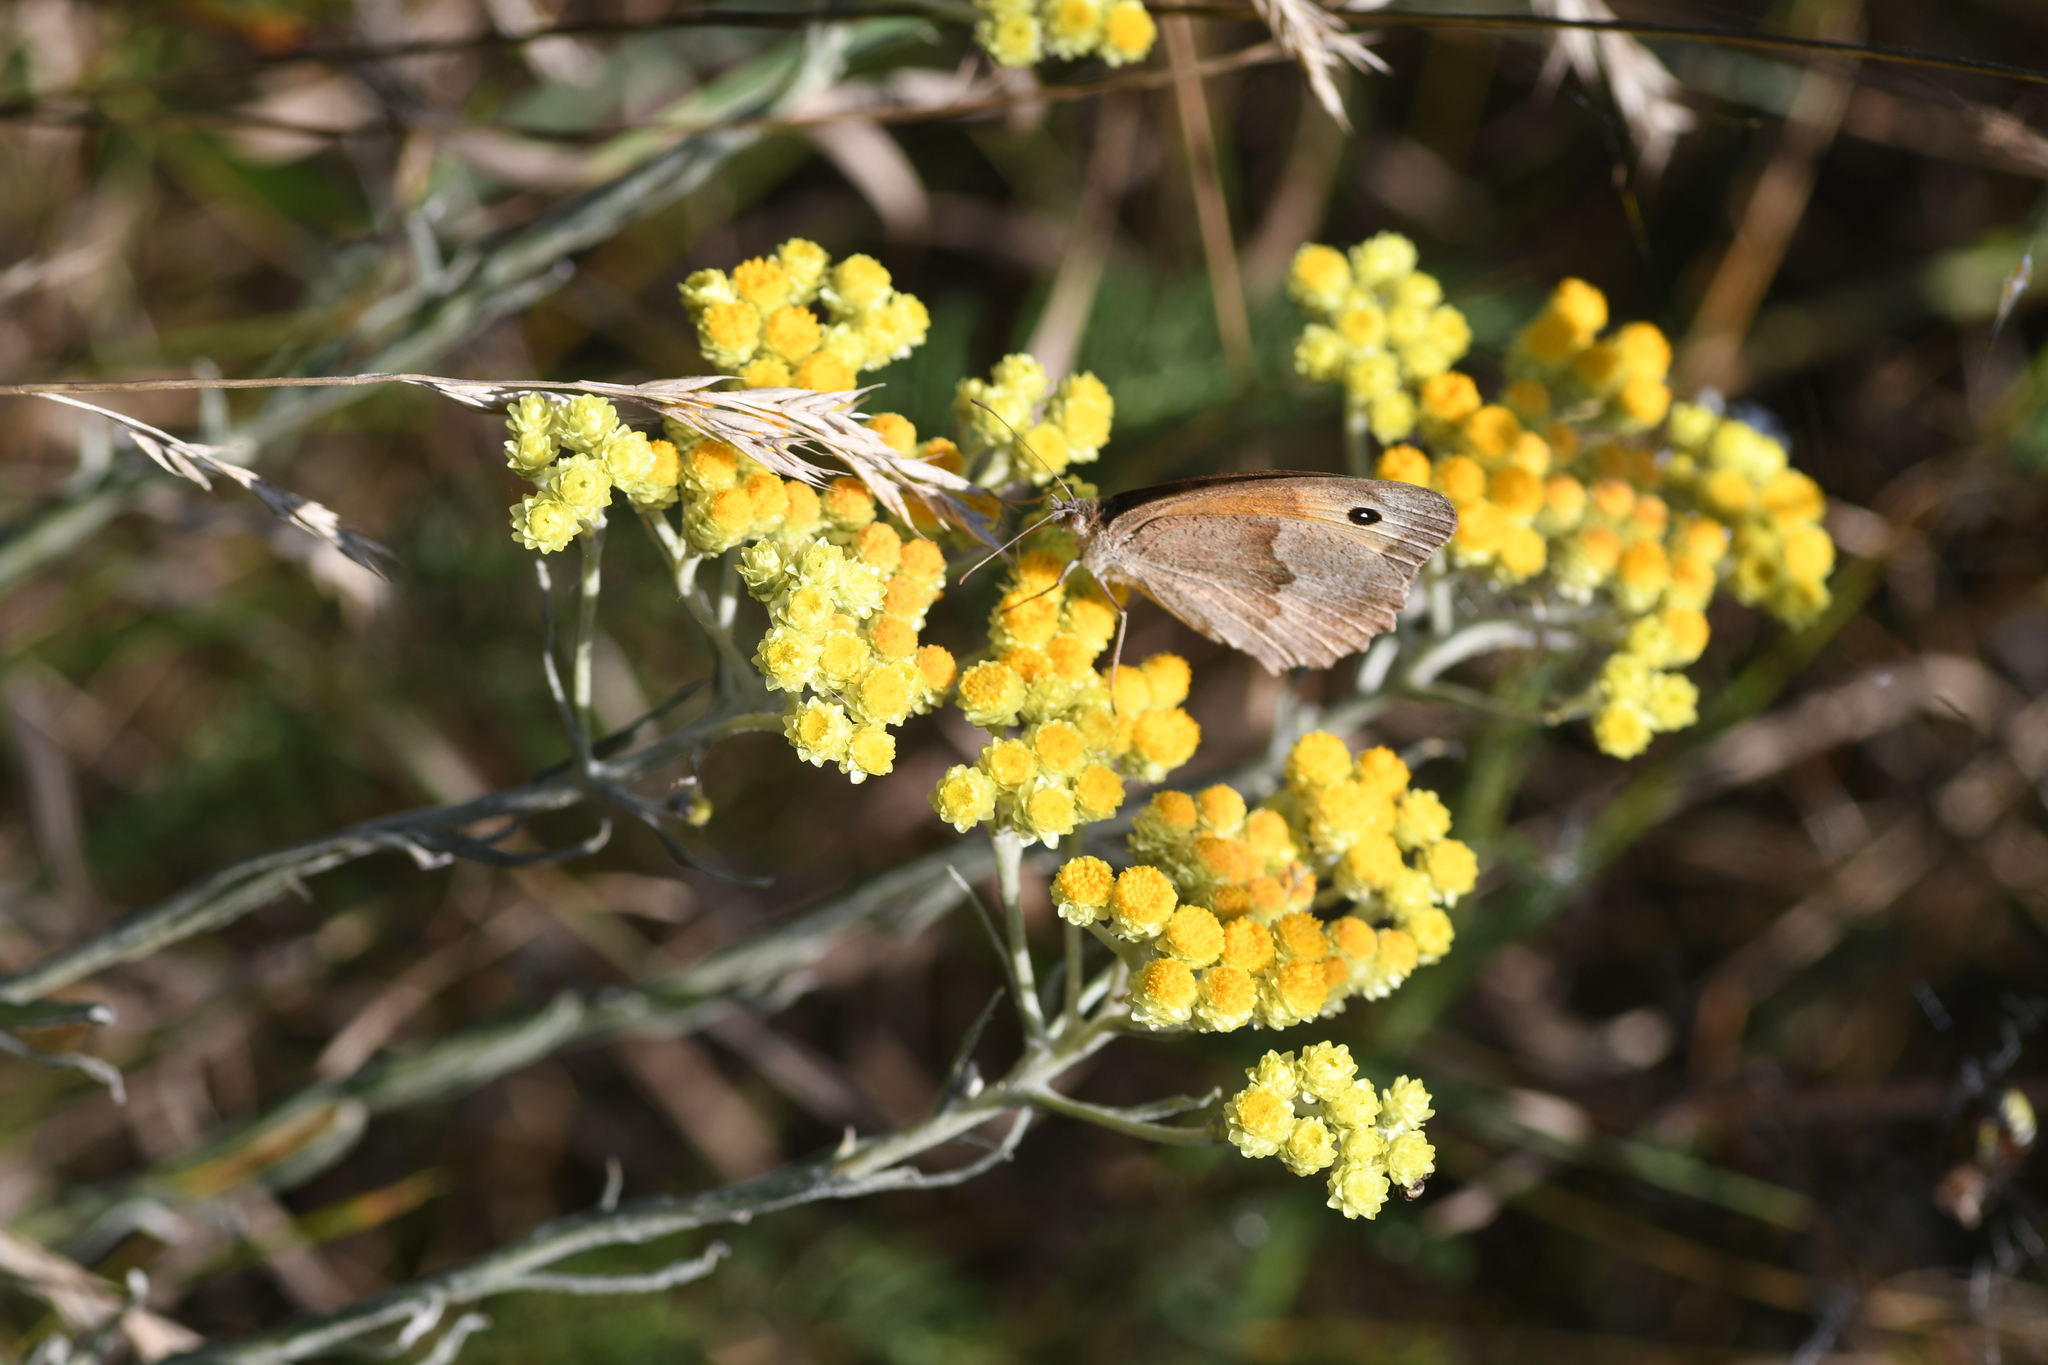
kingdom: Animalia
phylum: Arthropoda
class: Insecta
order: Lepidoptera
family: Nymphalidae
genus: Maniola
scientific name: Maniola jurtina
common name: Meadow brown
